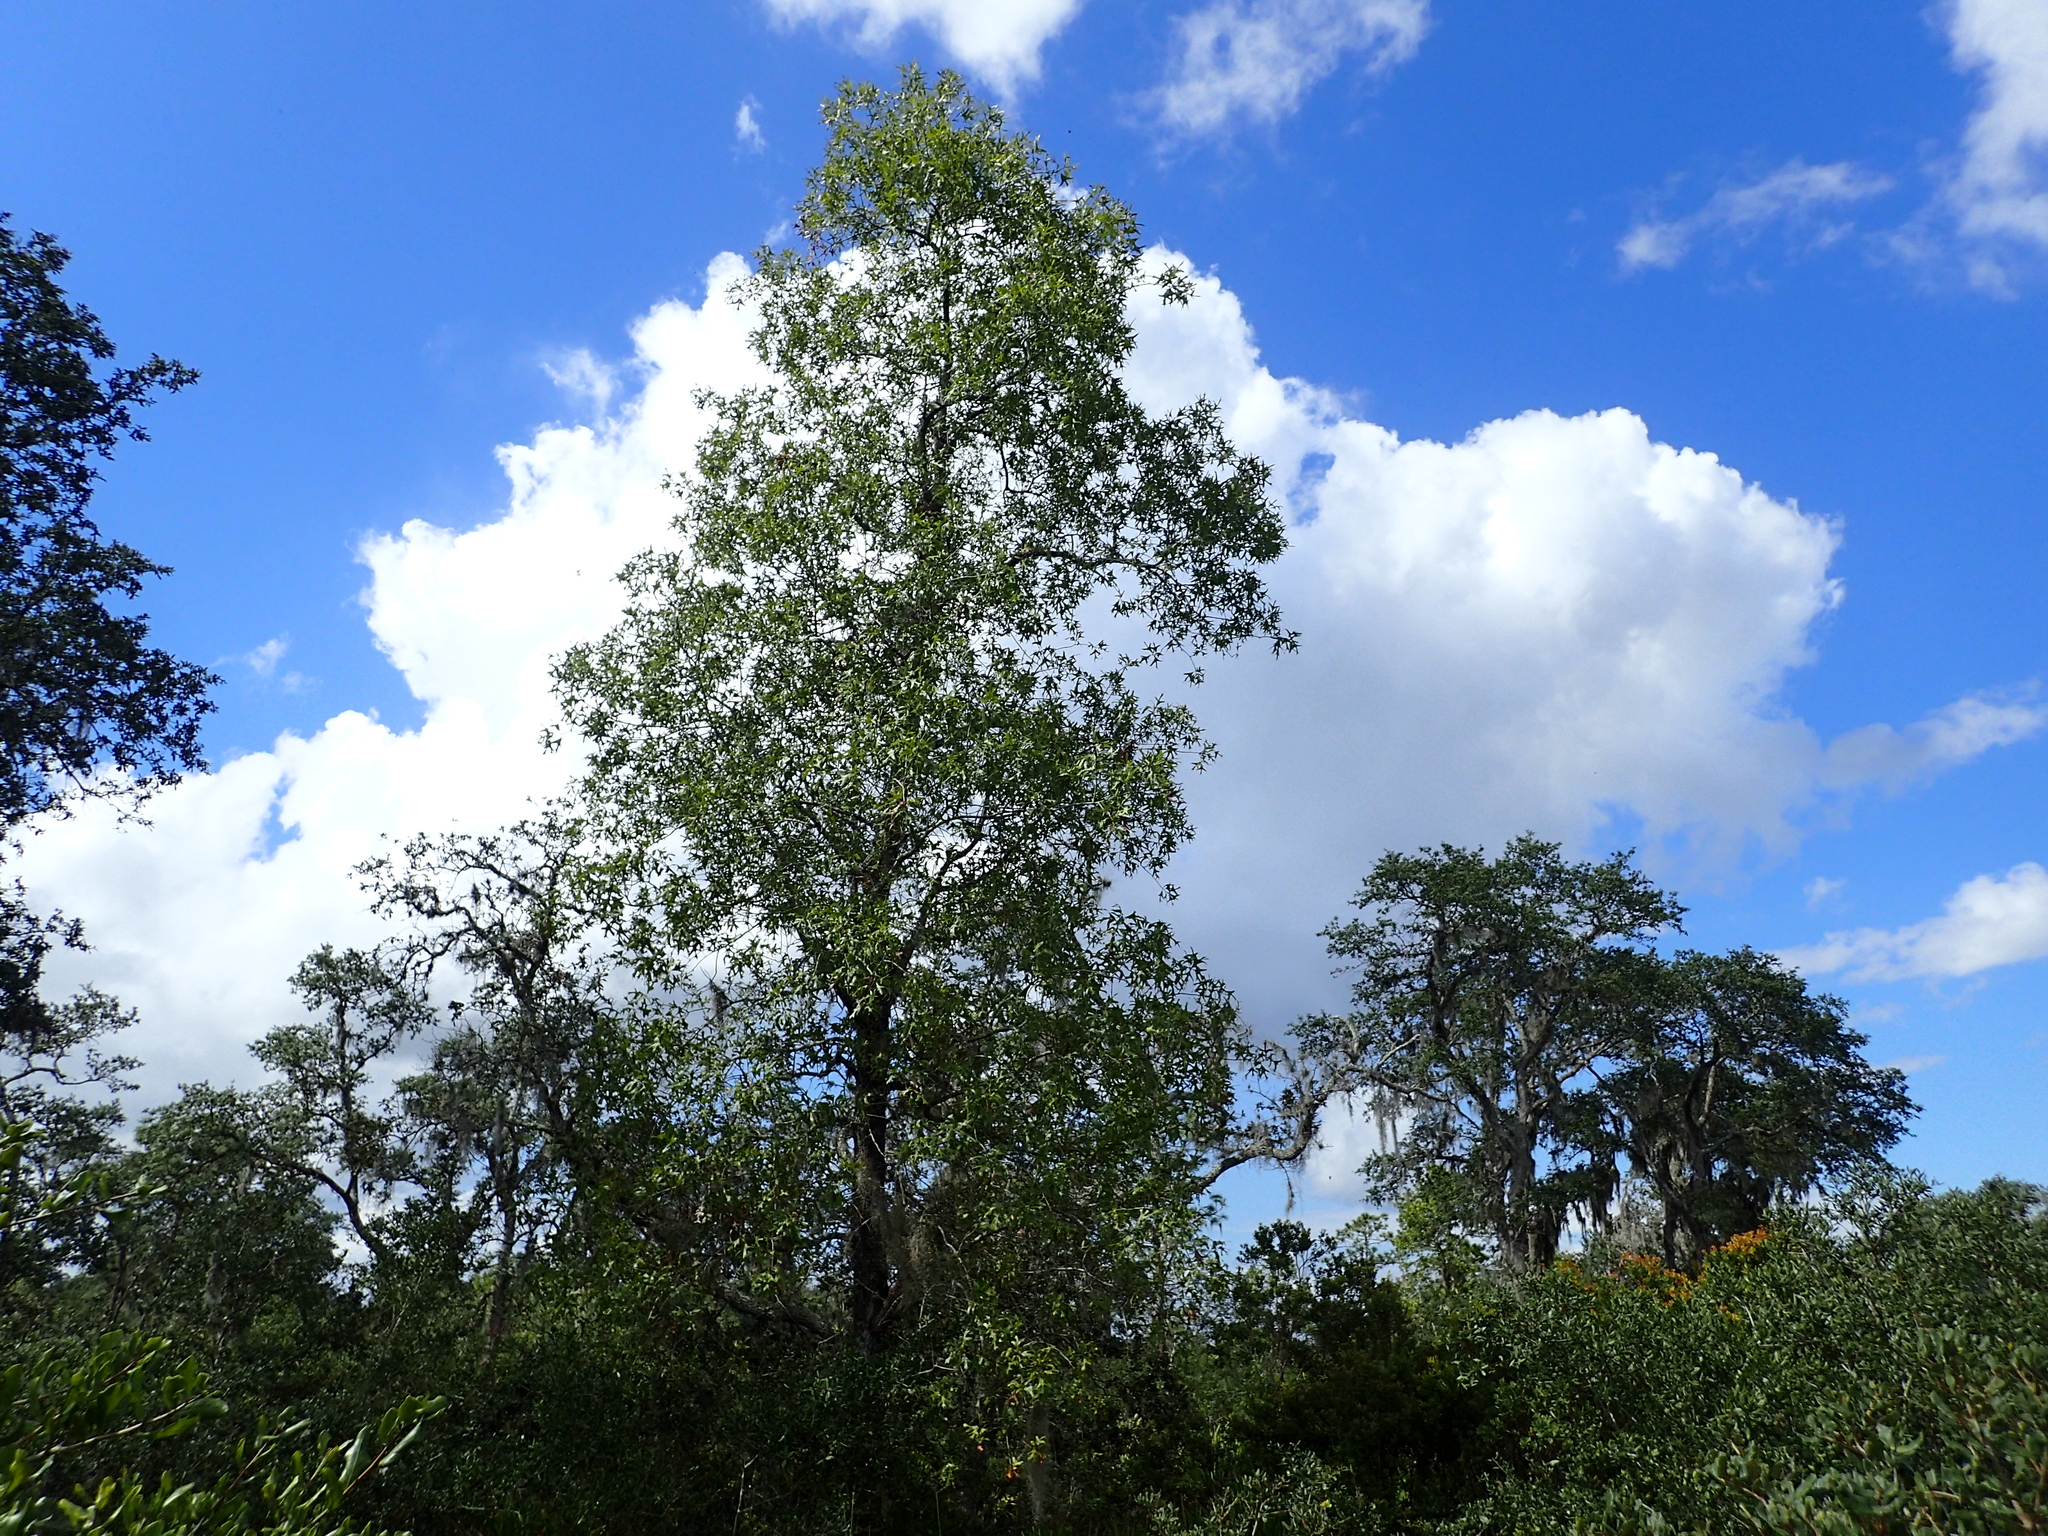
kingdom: Plantae
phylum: Tracheophyta
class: Magnoliopsida
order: Fagales
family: Fagaceae
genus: Quercus
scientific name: Quercus laevis
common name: Turkey oak
